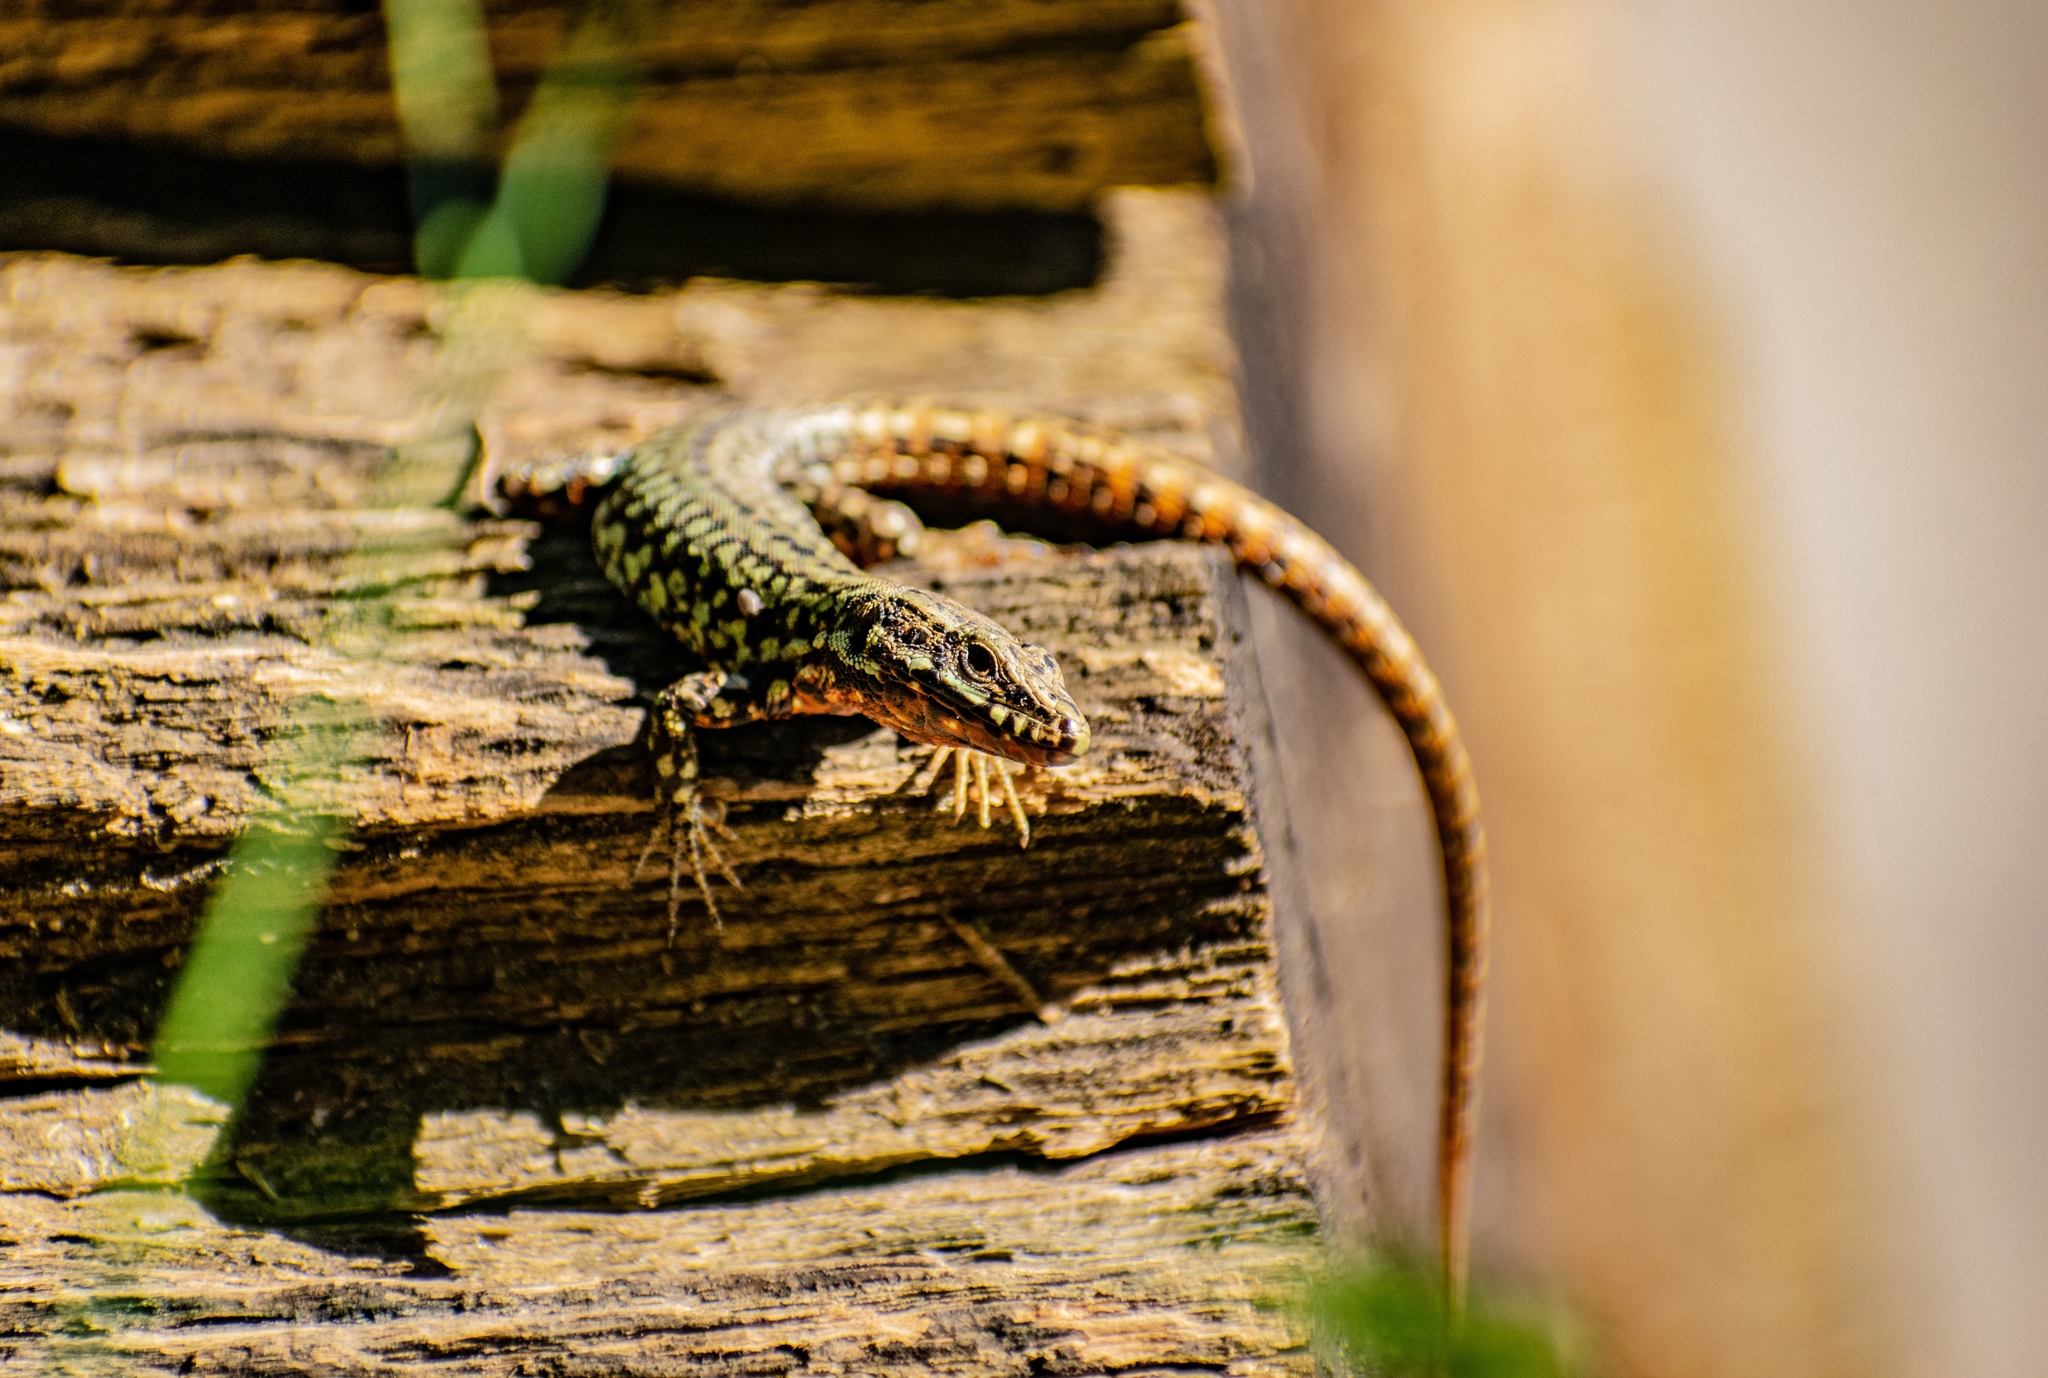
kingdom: Animalia
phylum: Chordata
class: Squamata
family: Lacertidae
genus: Podarcis
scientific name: Podarcis muralis
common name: Common wall lizard
